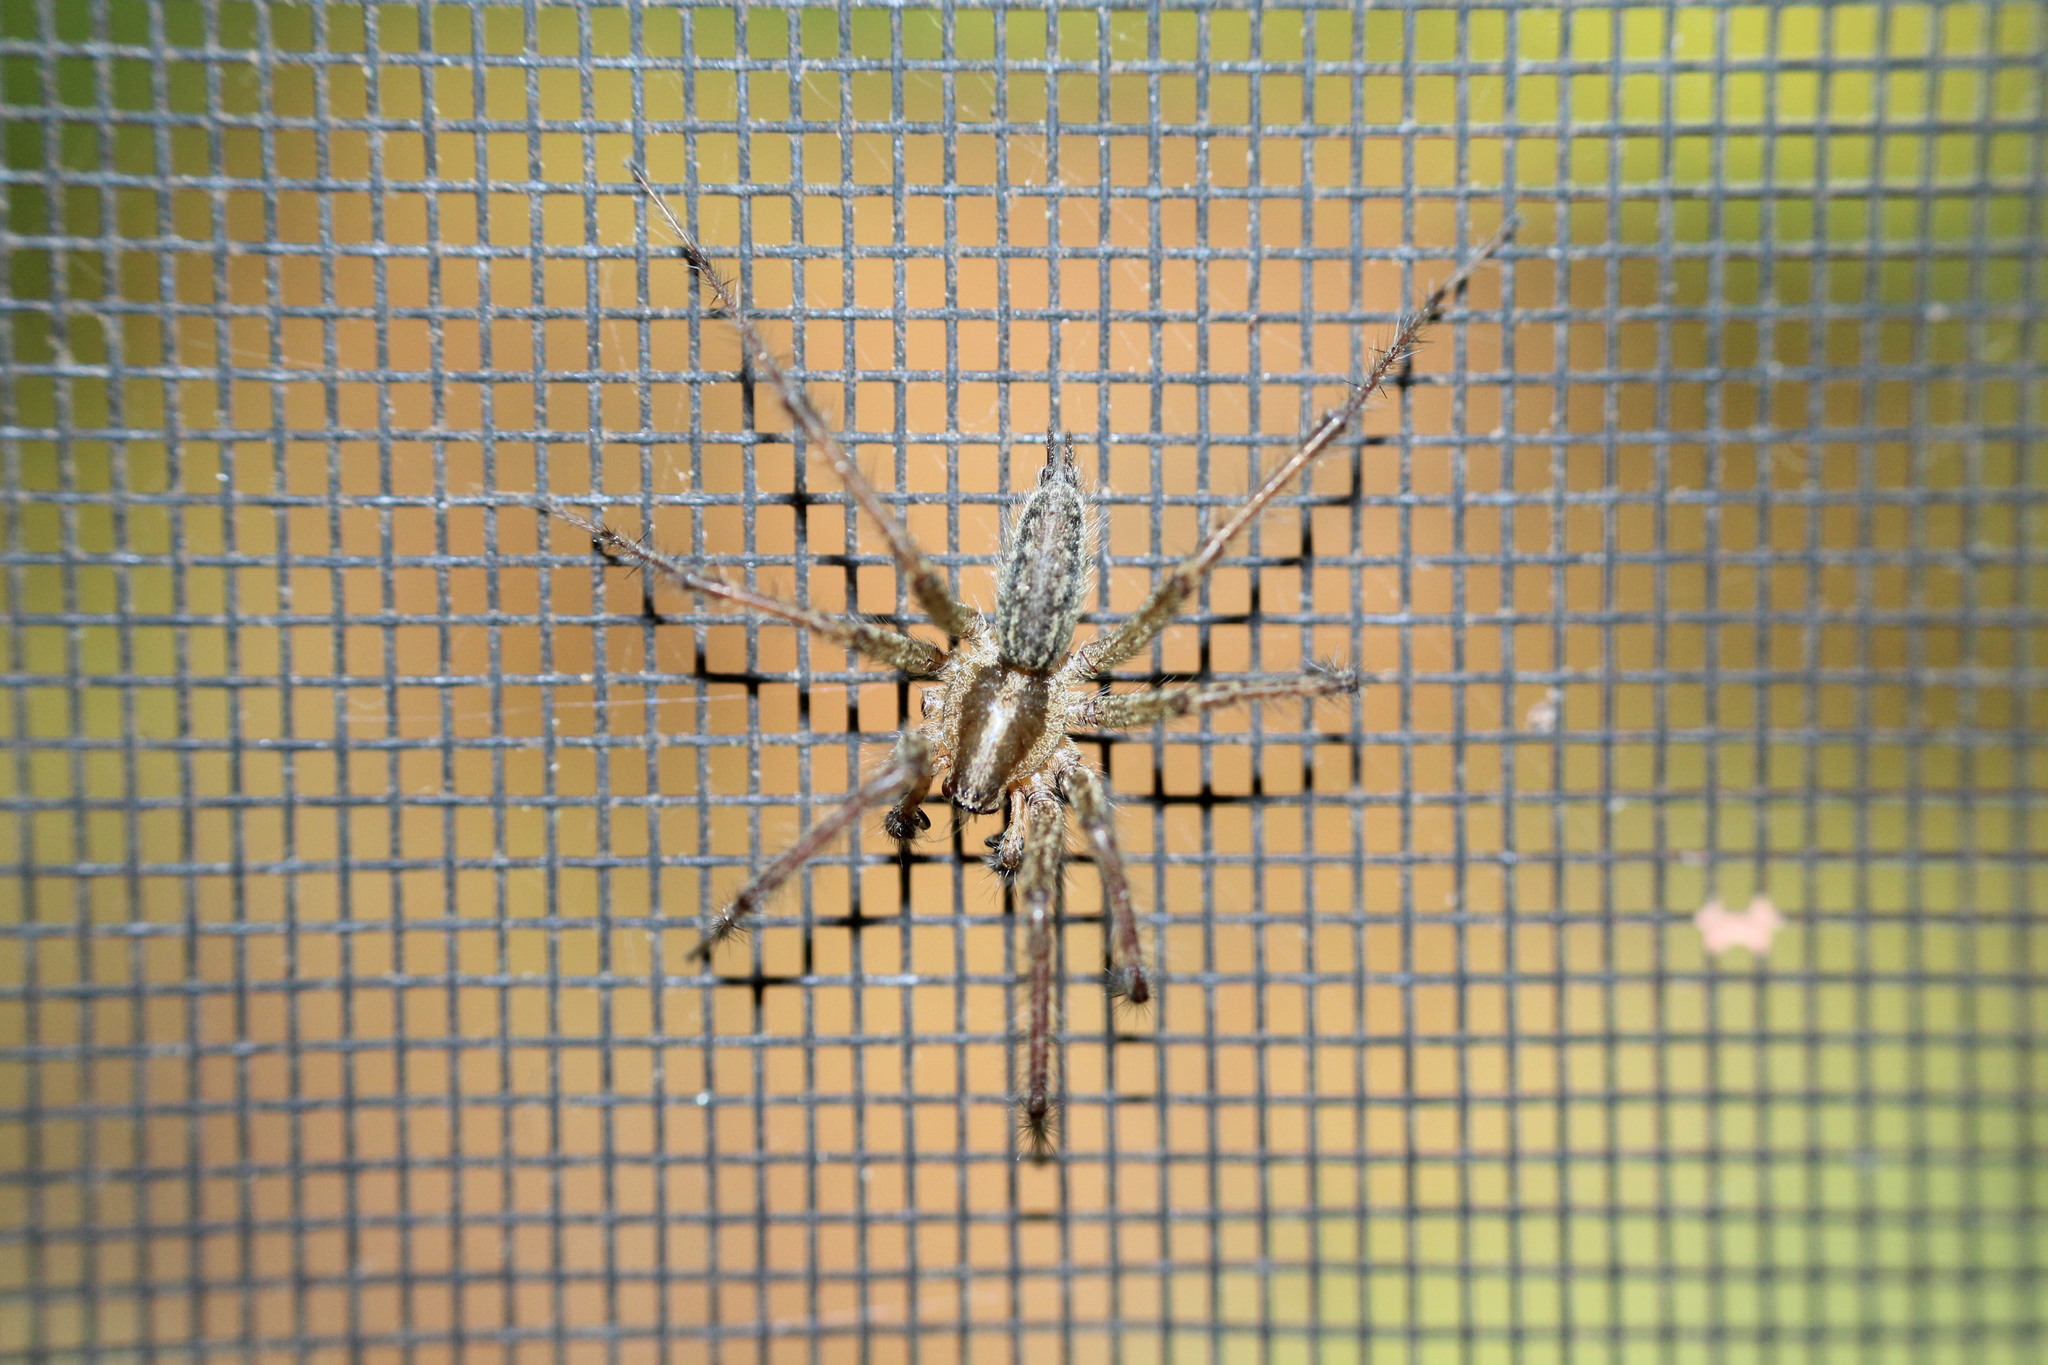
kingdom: Animalia
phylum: Arthropoda
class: Arachnida
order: Araneae
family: Agelenidae
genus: Agelenopsis
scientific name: Agelenopsis
